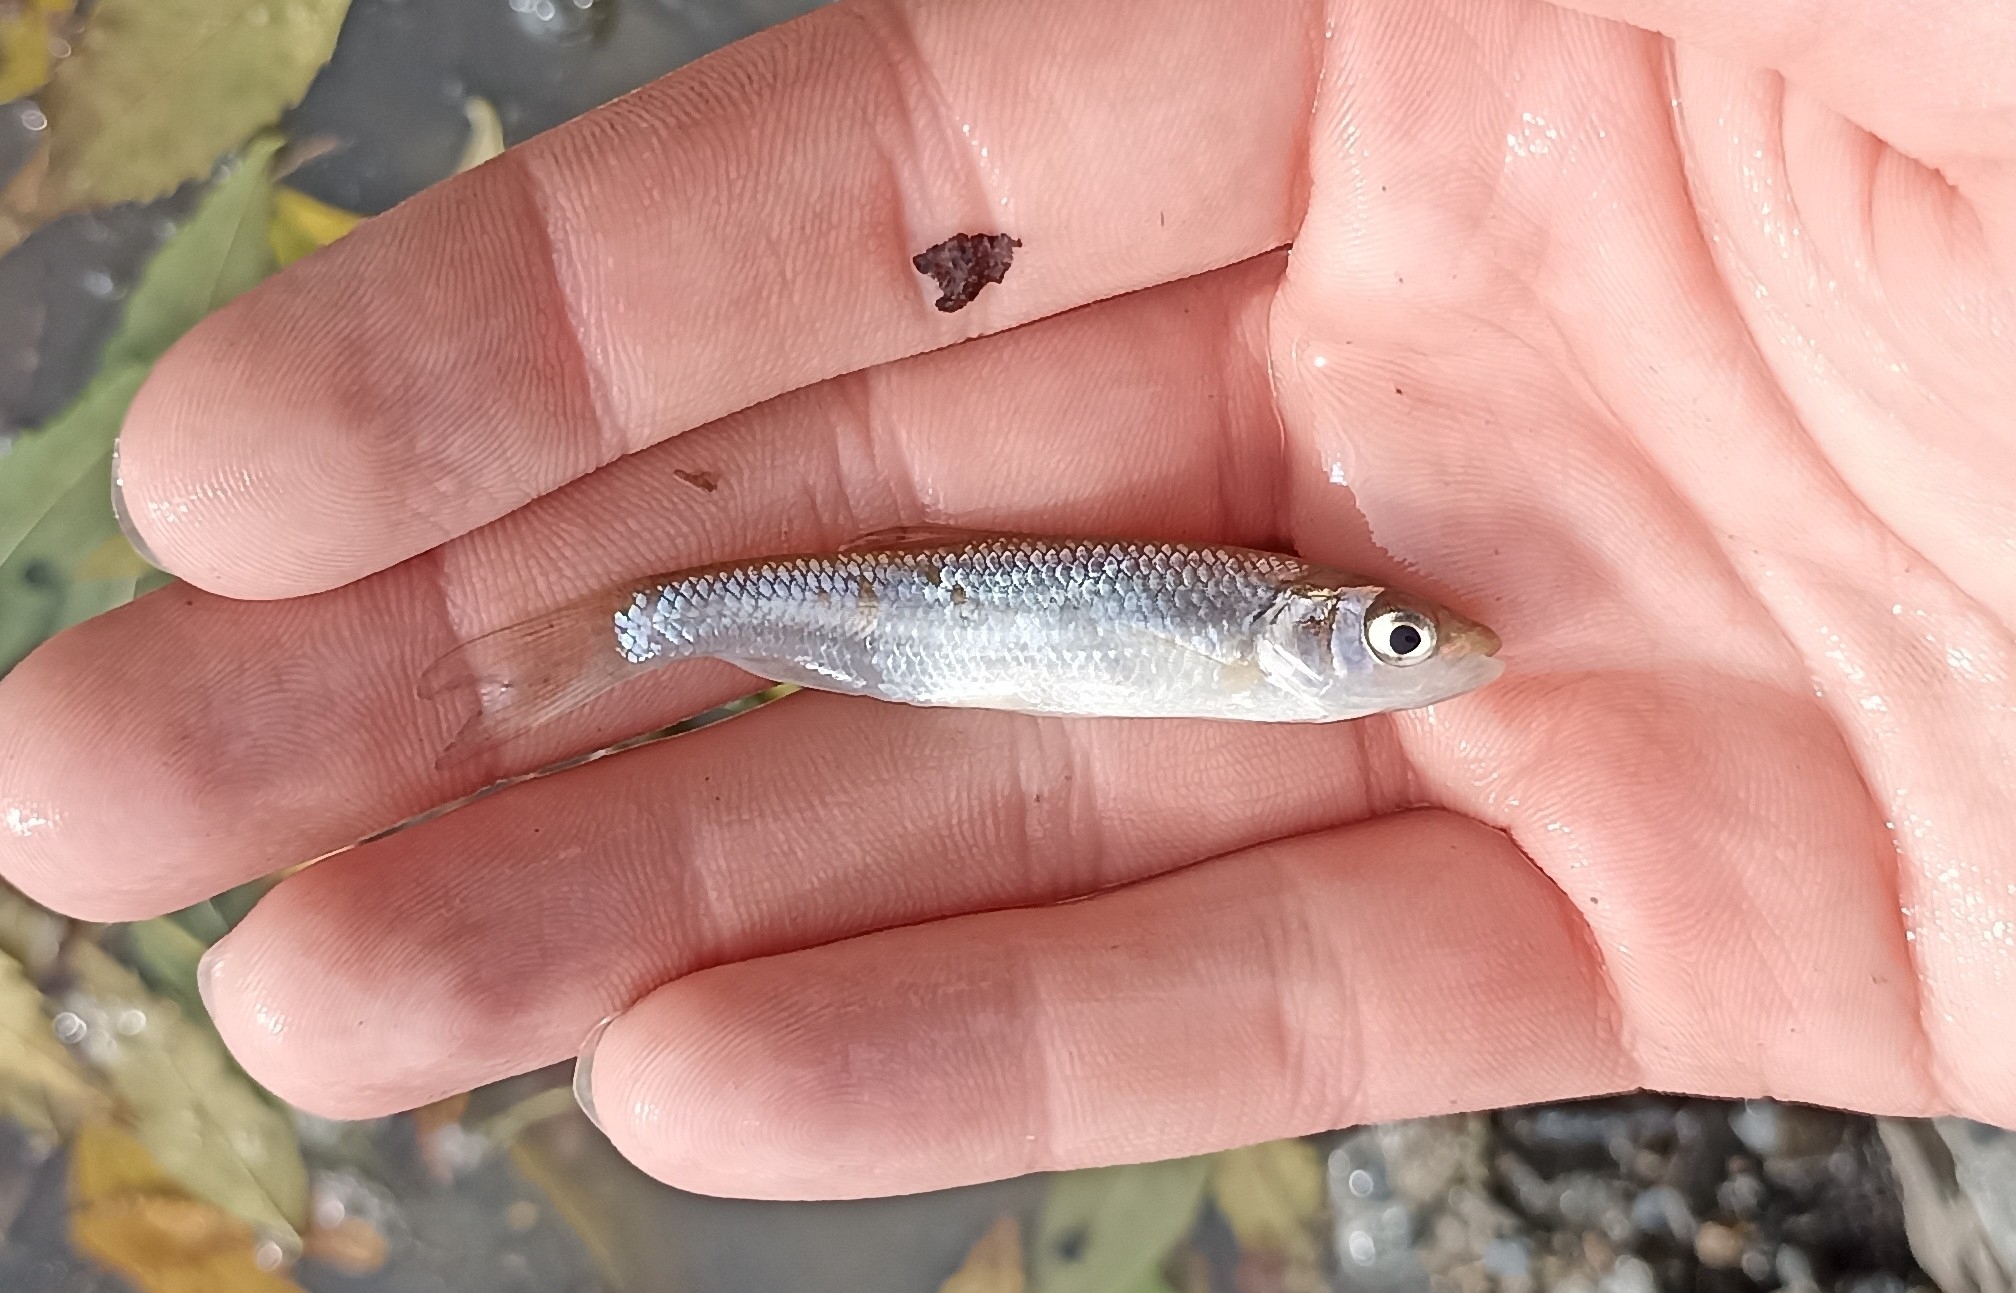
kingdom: Animalia
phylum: Chordata
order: Cypriniformes
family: Cyprinidae
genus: Squalius
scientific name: Squalius cephalus
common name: Chub
